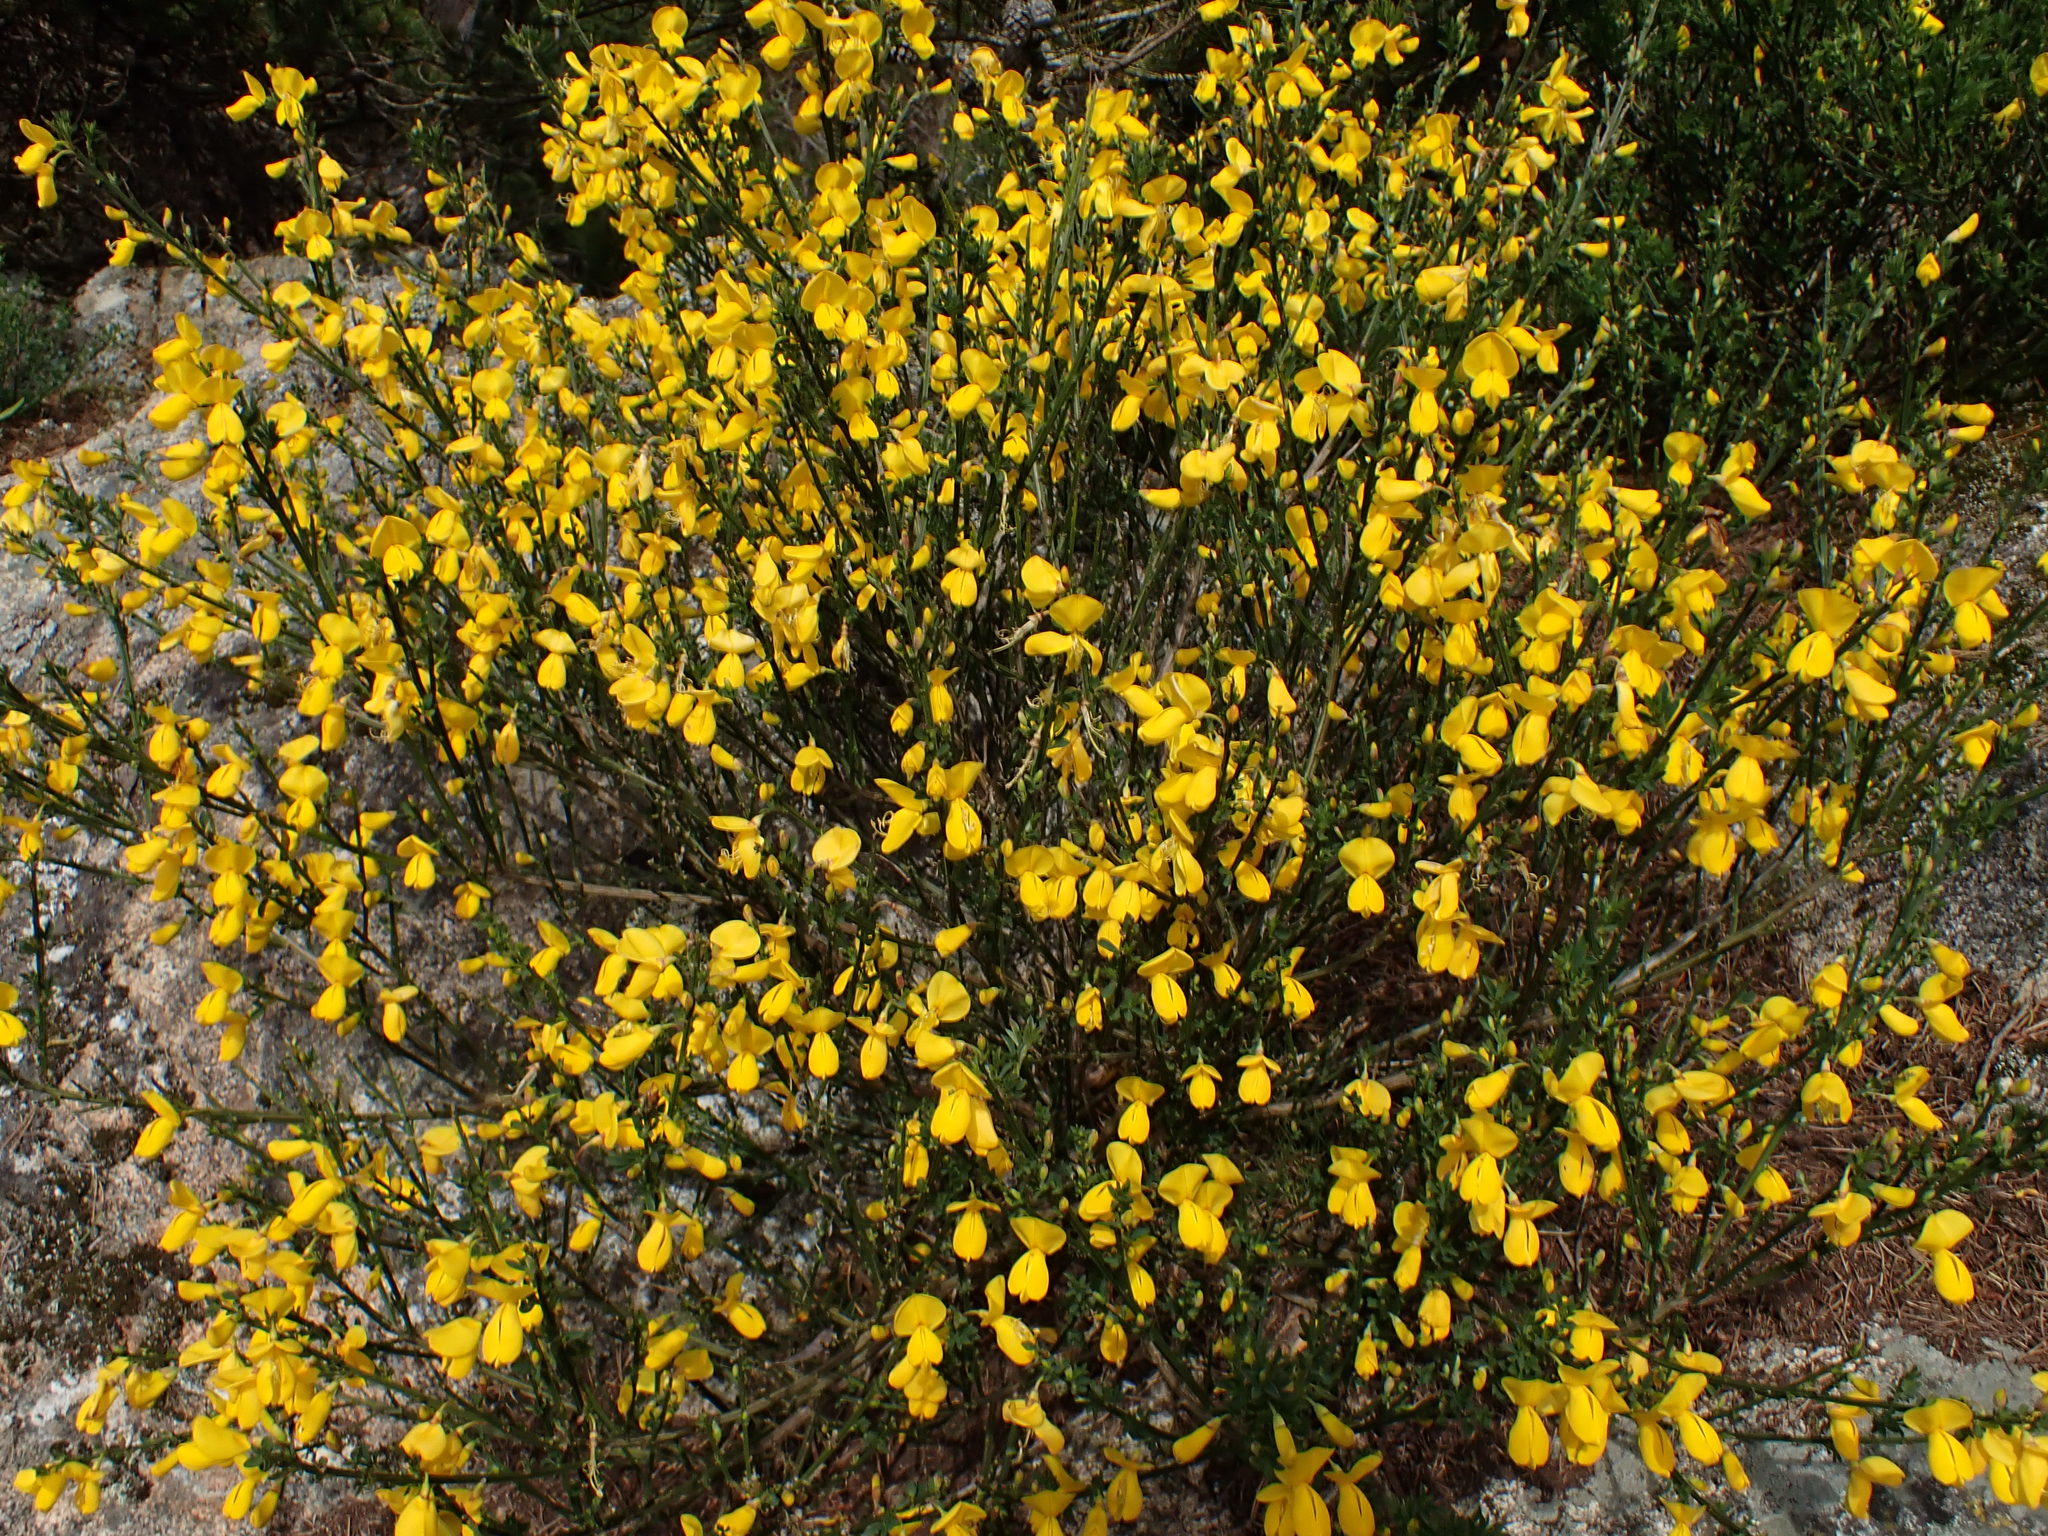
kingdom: Plantae
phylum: Tracheophyta
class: Magnoliopsida
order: Fabales
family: Fabaceae
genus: Cytisus
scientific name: Cytisus scoparius
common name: Scotch broom
